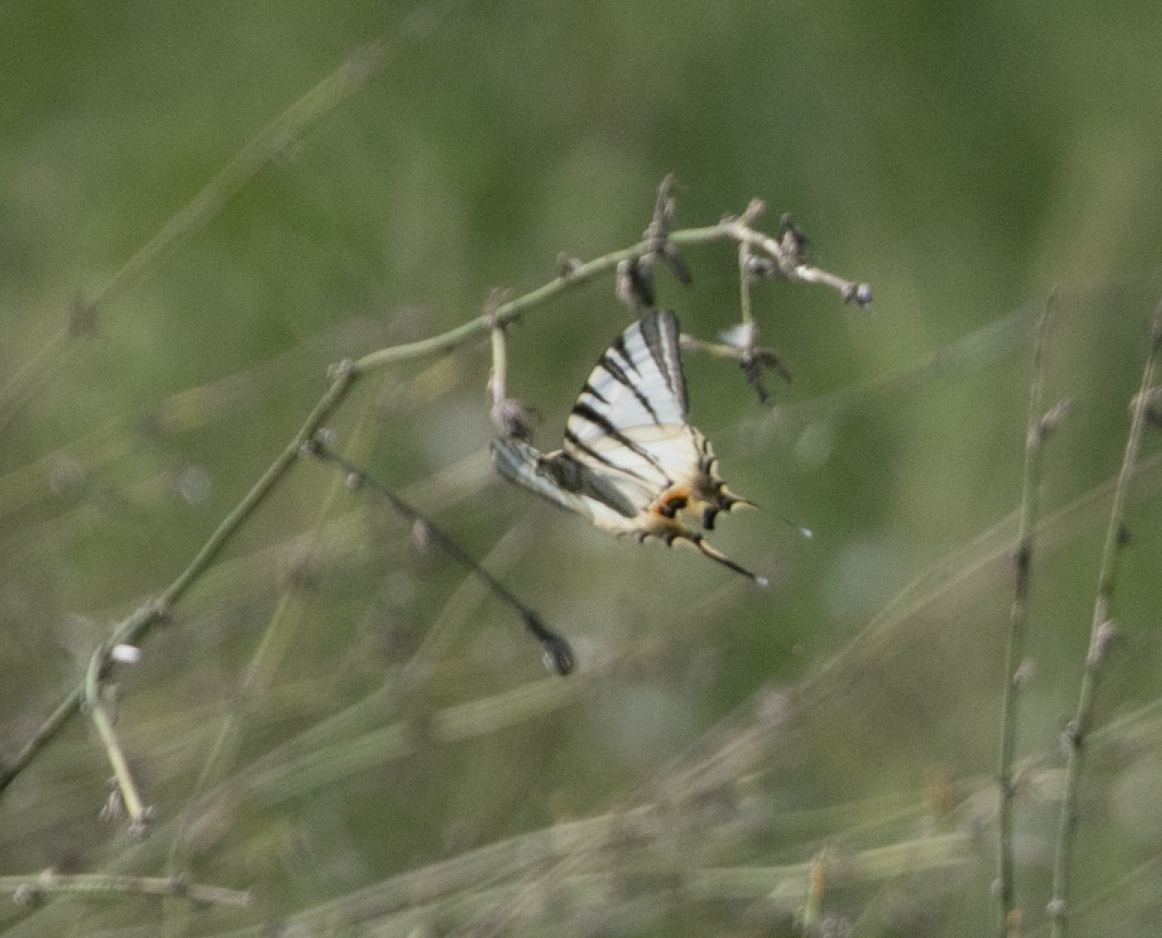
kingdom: Animalia
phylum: Arthropoda
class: Insecta
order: Lepidoptera
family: Papilionidae
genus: Iphiclides
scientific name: Iphiclides podalirius
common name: Scarce swallowtail
